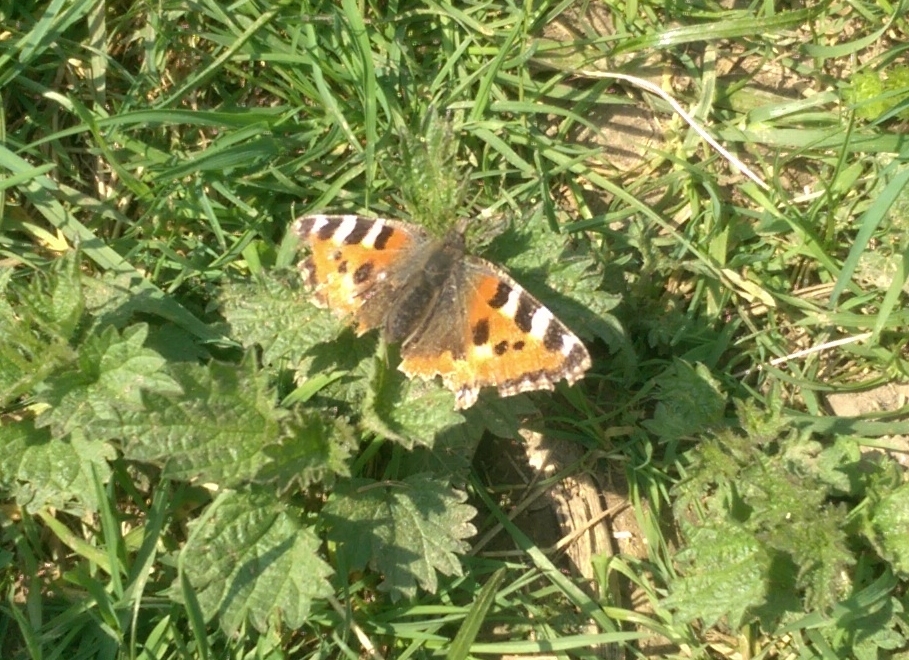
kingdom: Animalia
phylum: Arthropoda
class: Insecta
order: Lepidoptera
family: Nymphalidae
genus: Aglais
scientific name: Aglais urticae
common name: Small tortoiseshell
